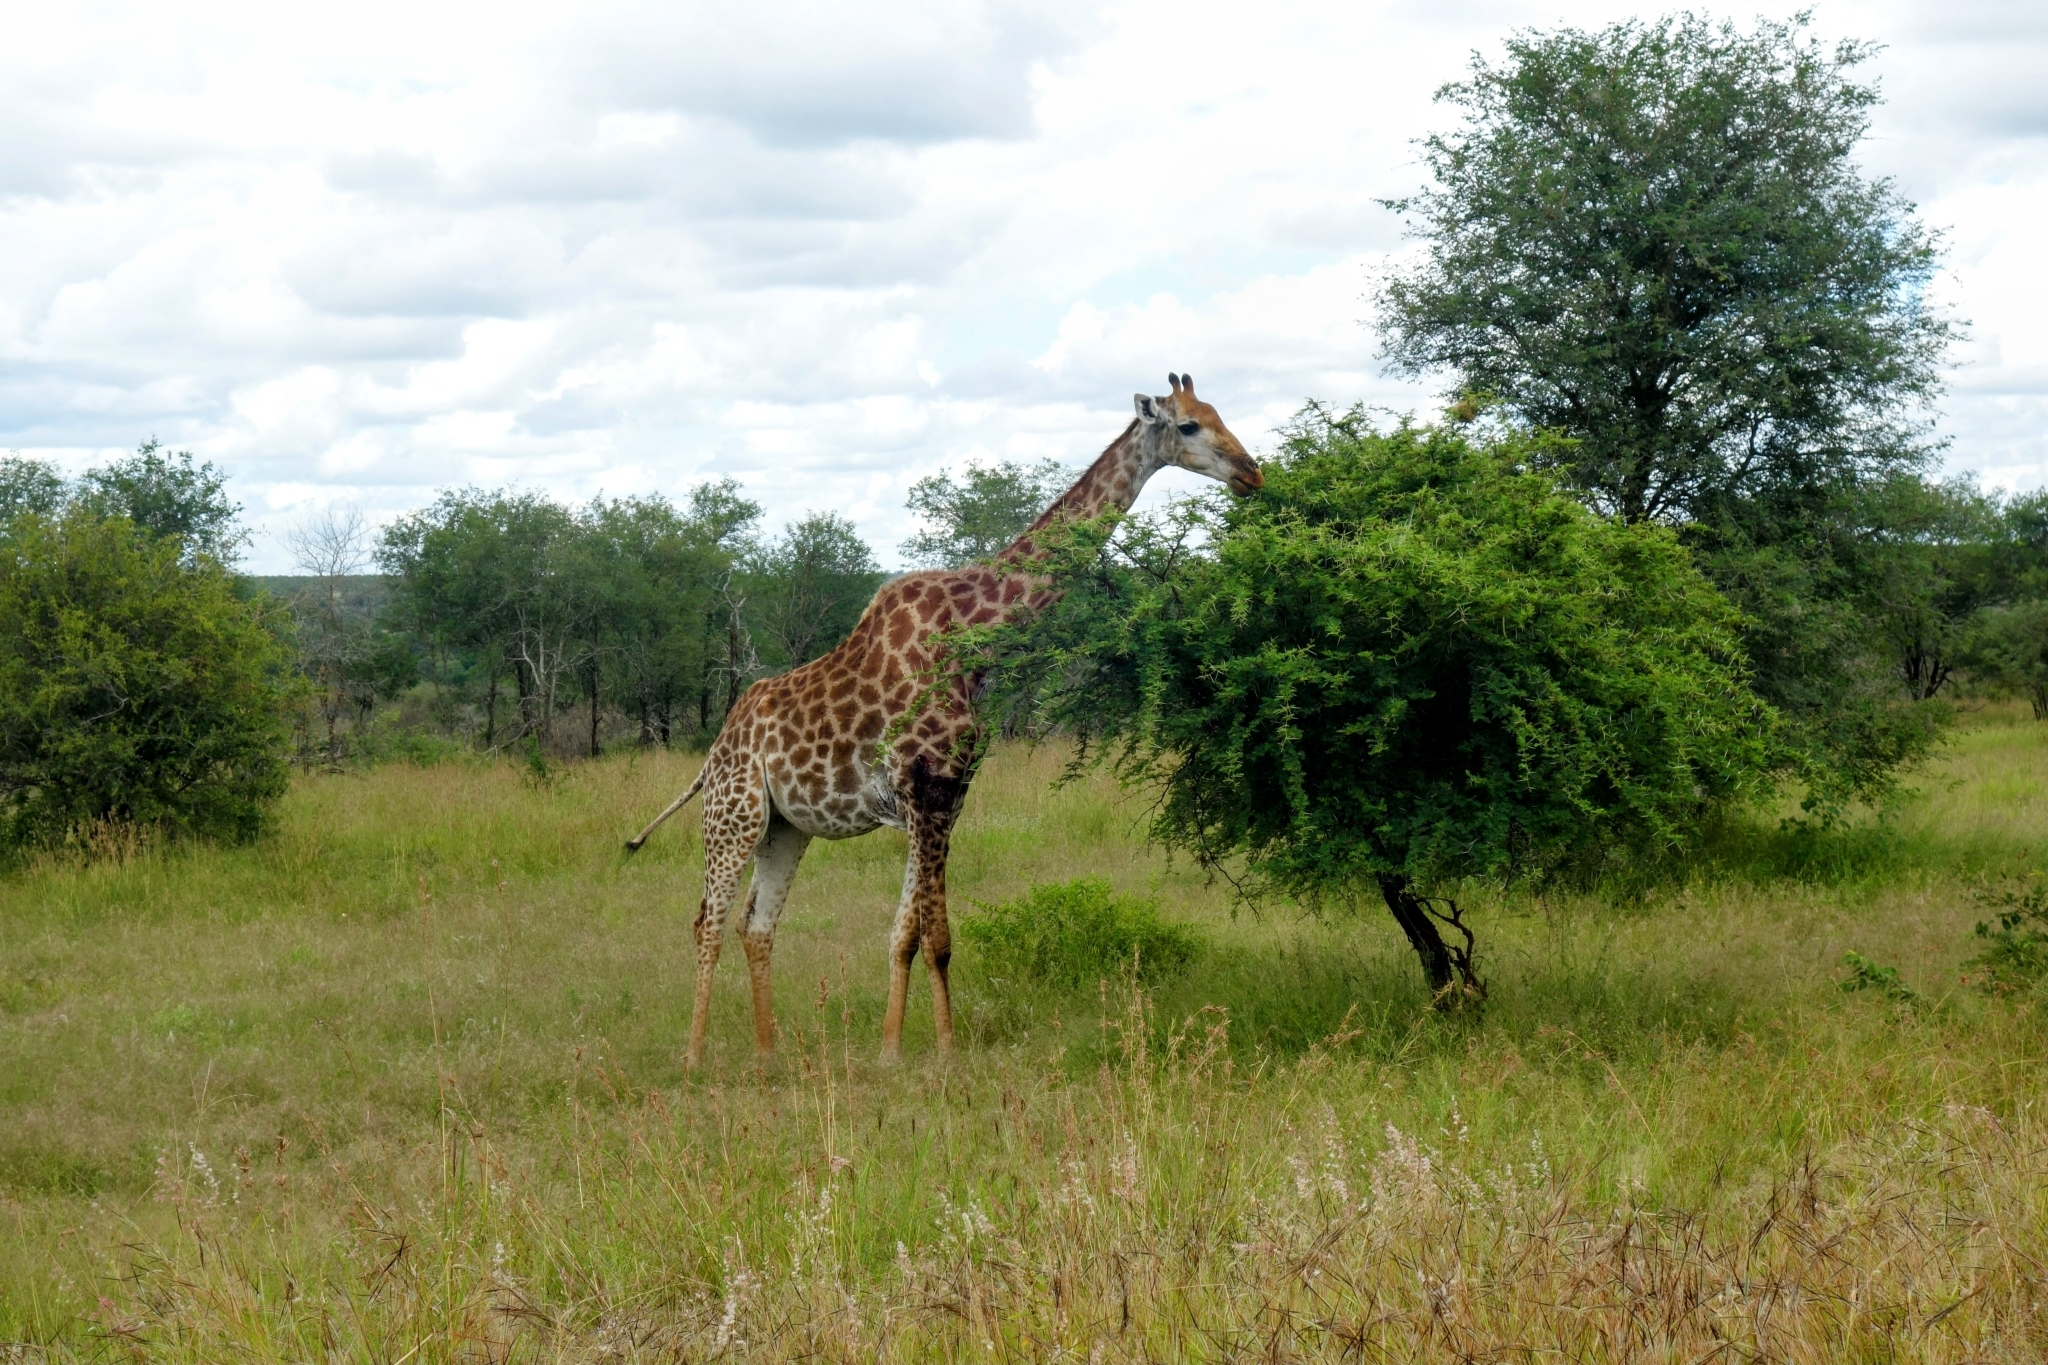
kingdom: Animalia
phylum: Chordata
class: Mammalia
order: Artiodactyla
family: Giraffidae
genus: Giraffa
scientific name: Giraffa giraffa
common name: Southern giraffe
